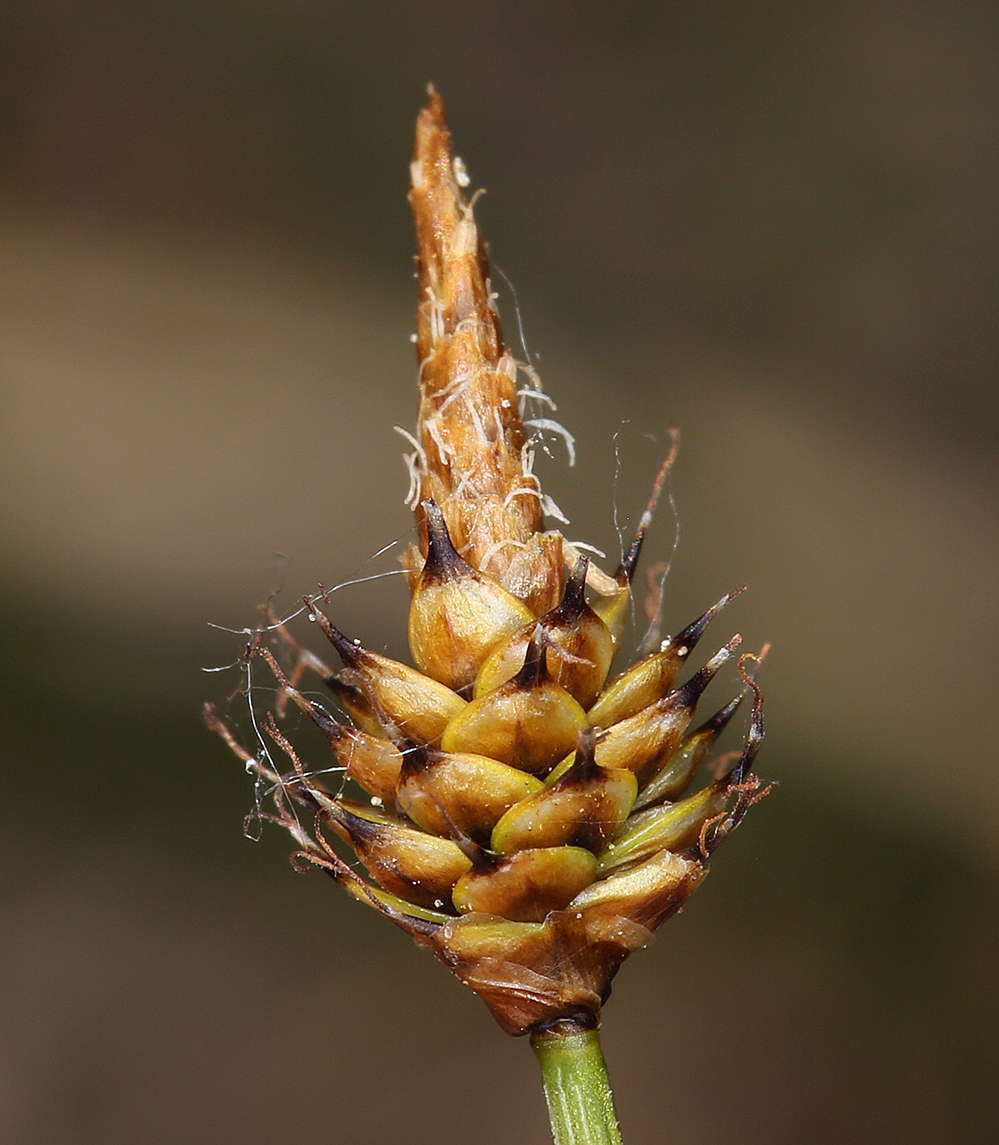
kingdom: Plantae
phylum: Tracheophyta
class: Liliopsida
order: Poales
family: Cyperaceae
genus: Carex
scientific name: Carex capitata
